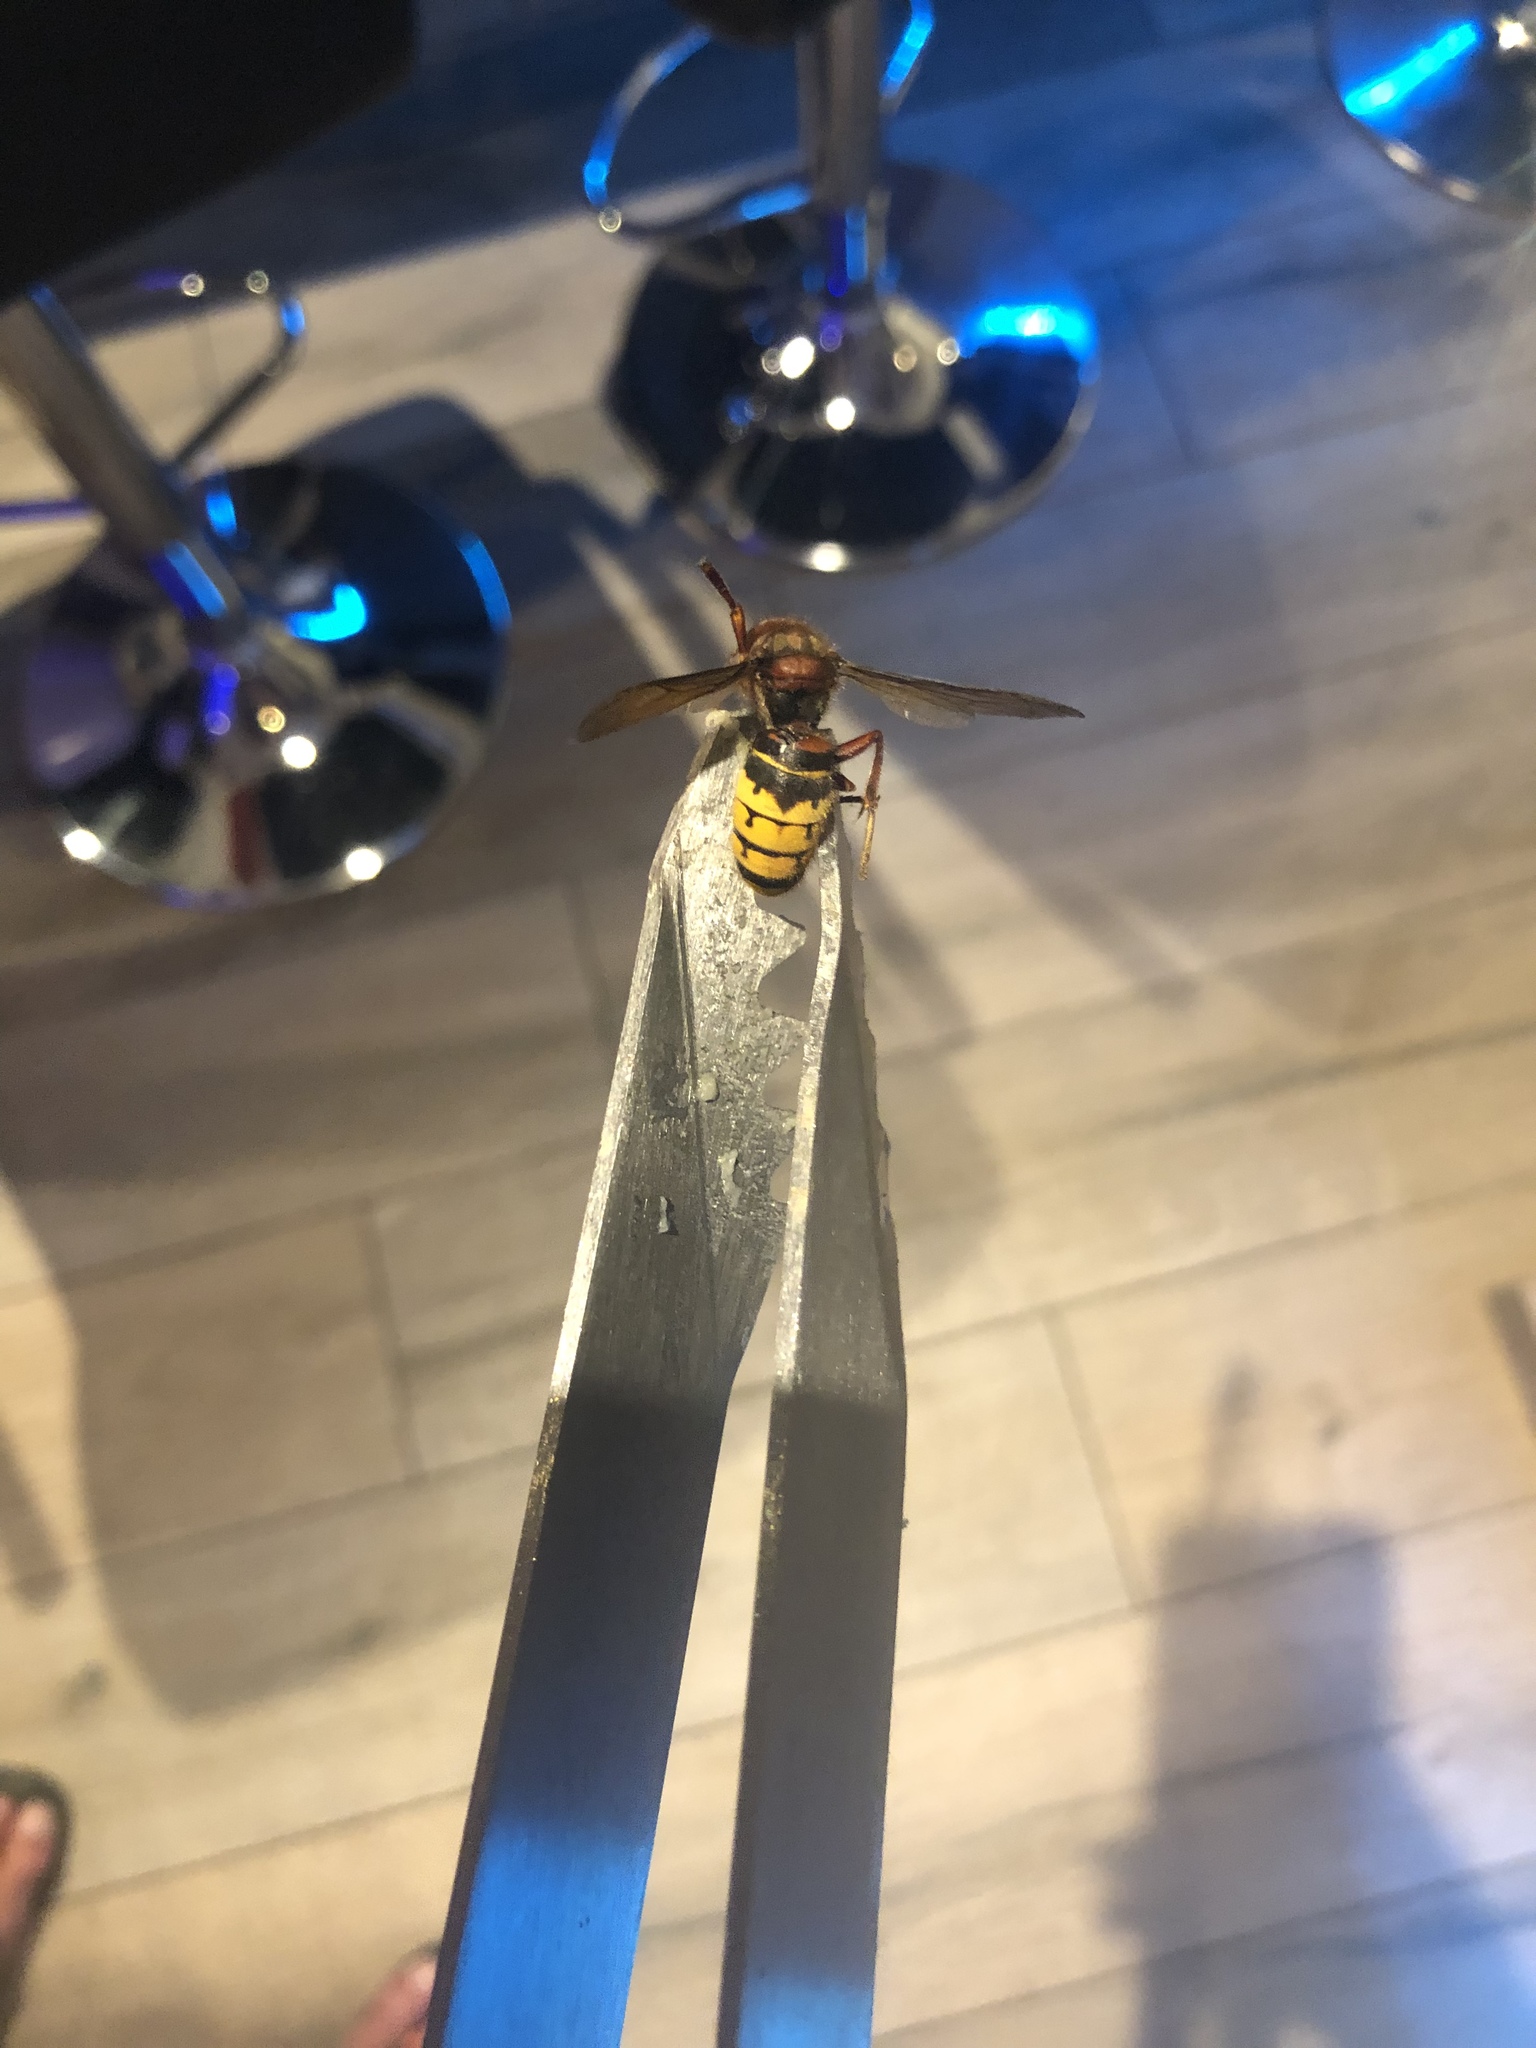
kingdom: Animalia
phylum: Arthropoda
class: Insecta
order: Hymenoptera
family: Vespidae
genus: Vespa
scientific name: Vespa crabro
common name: Hornet
